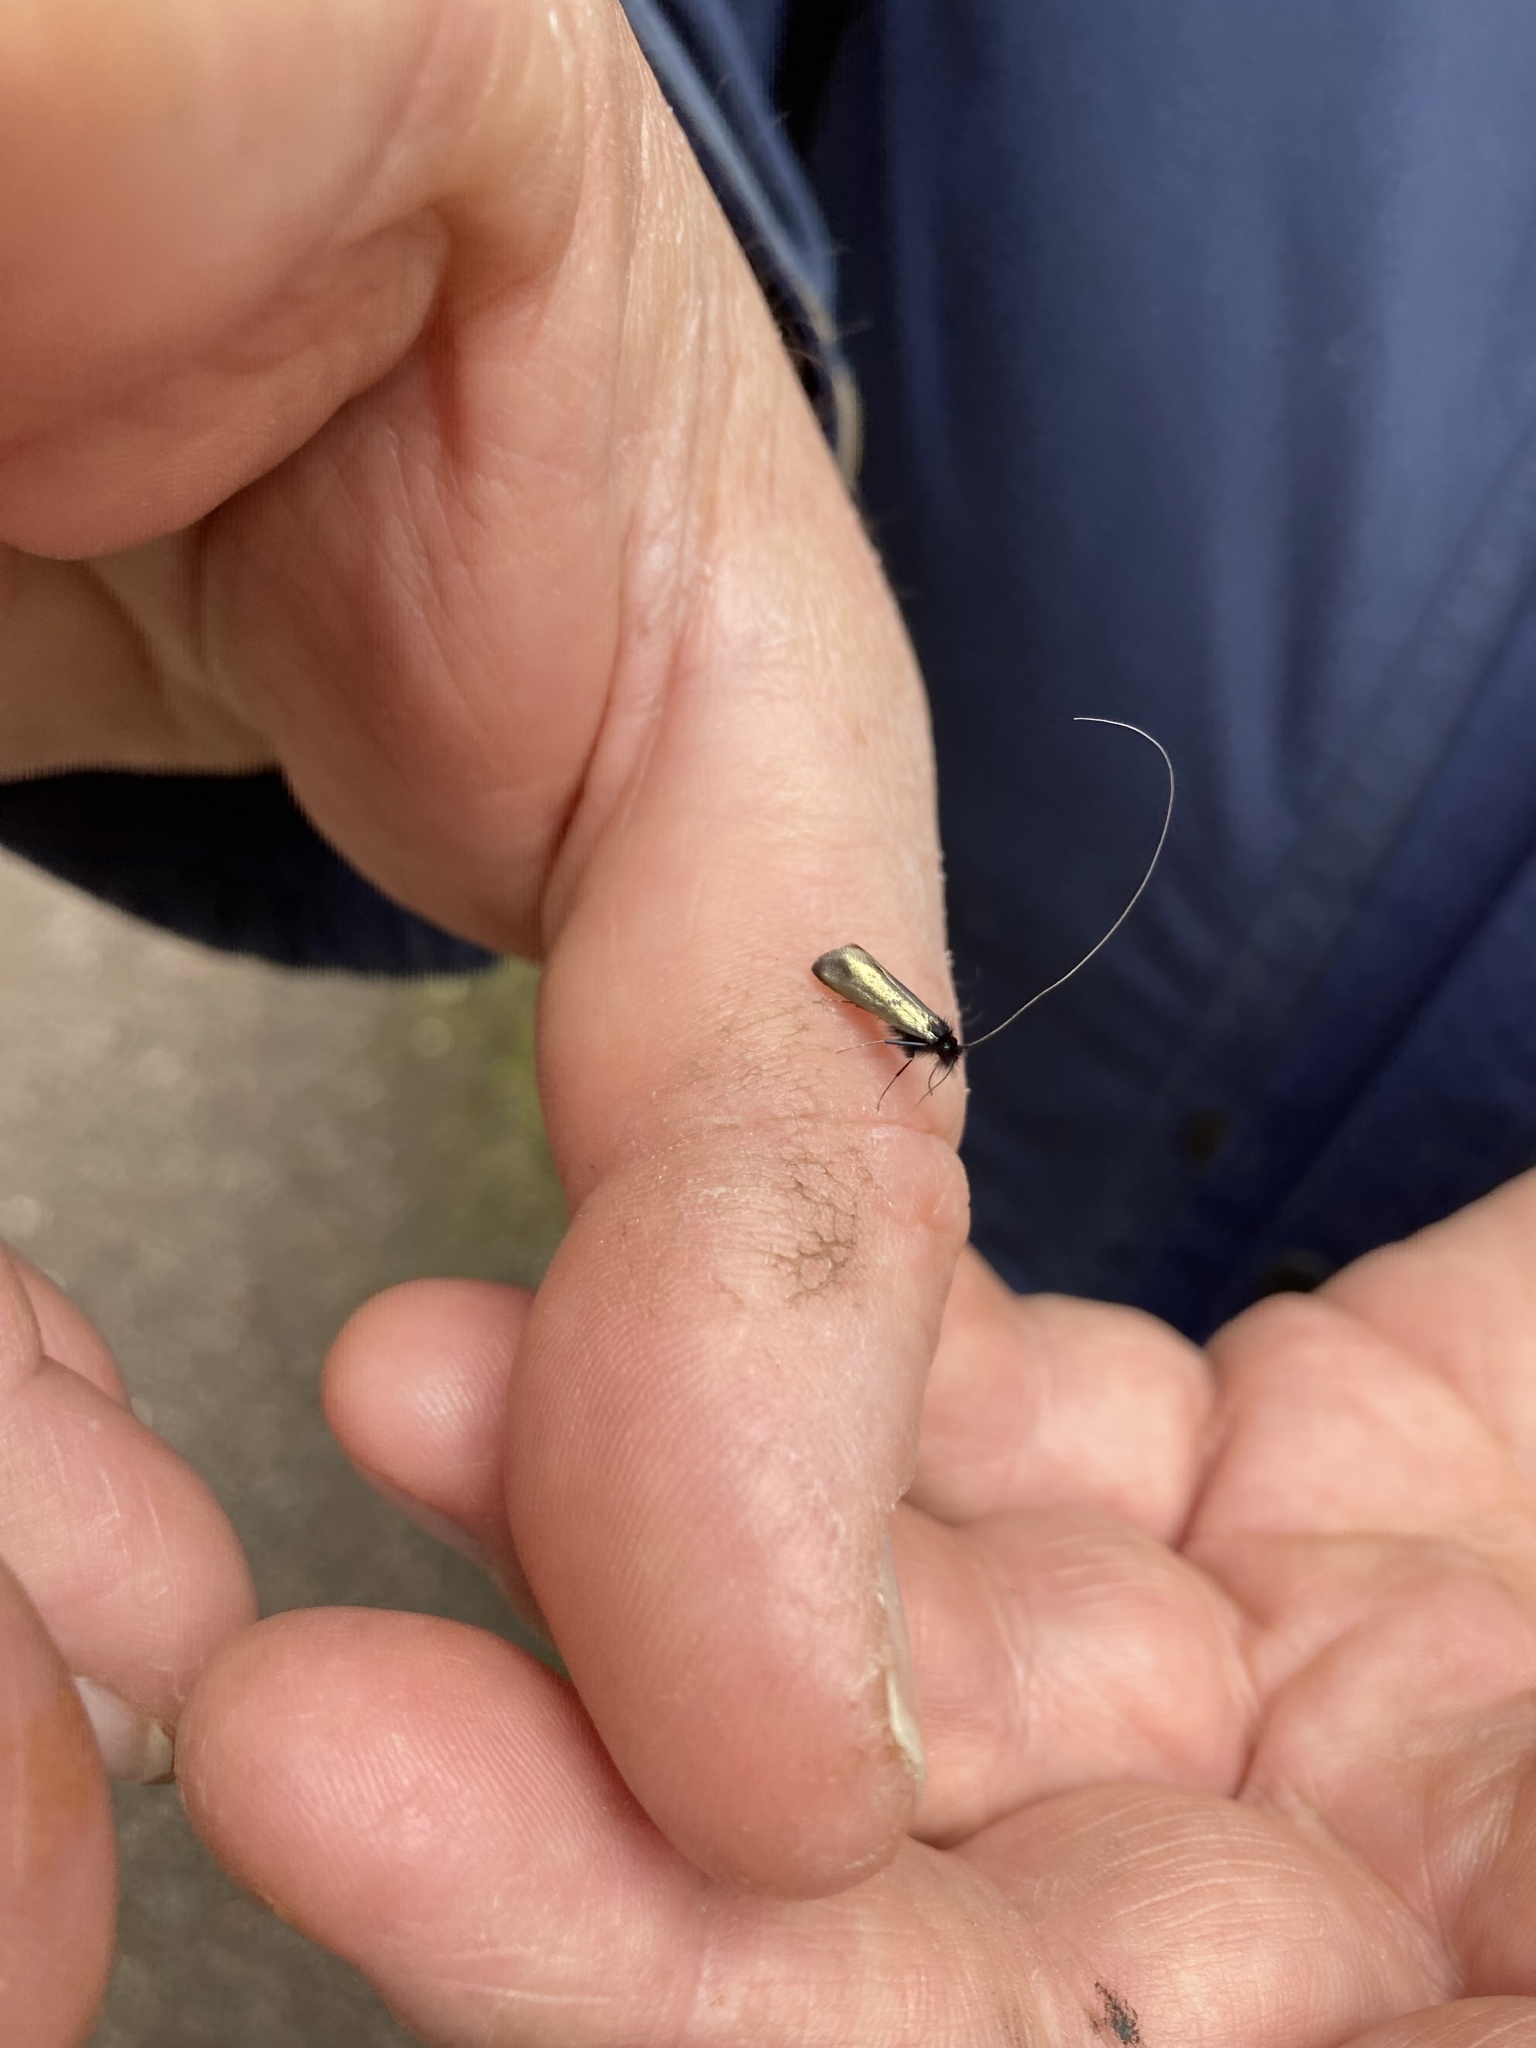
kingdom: Animalia
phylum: Arthropoda
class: Insecta
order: Lepidoptera
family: Adelidae
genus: Adela
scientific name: Adela viridella
